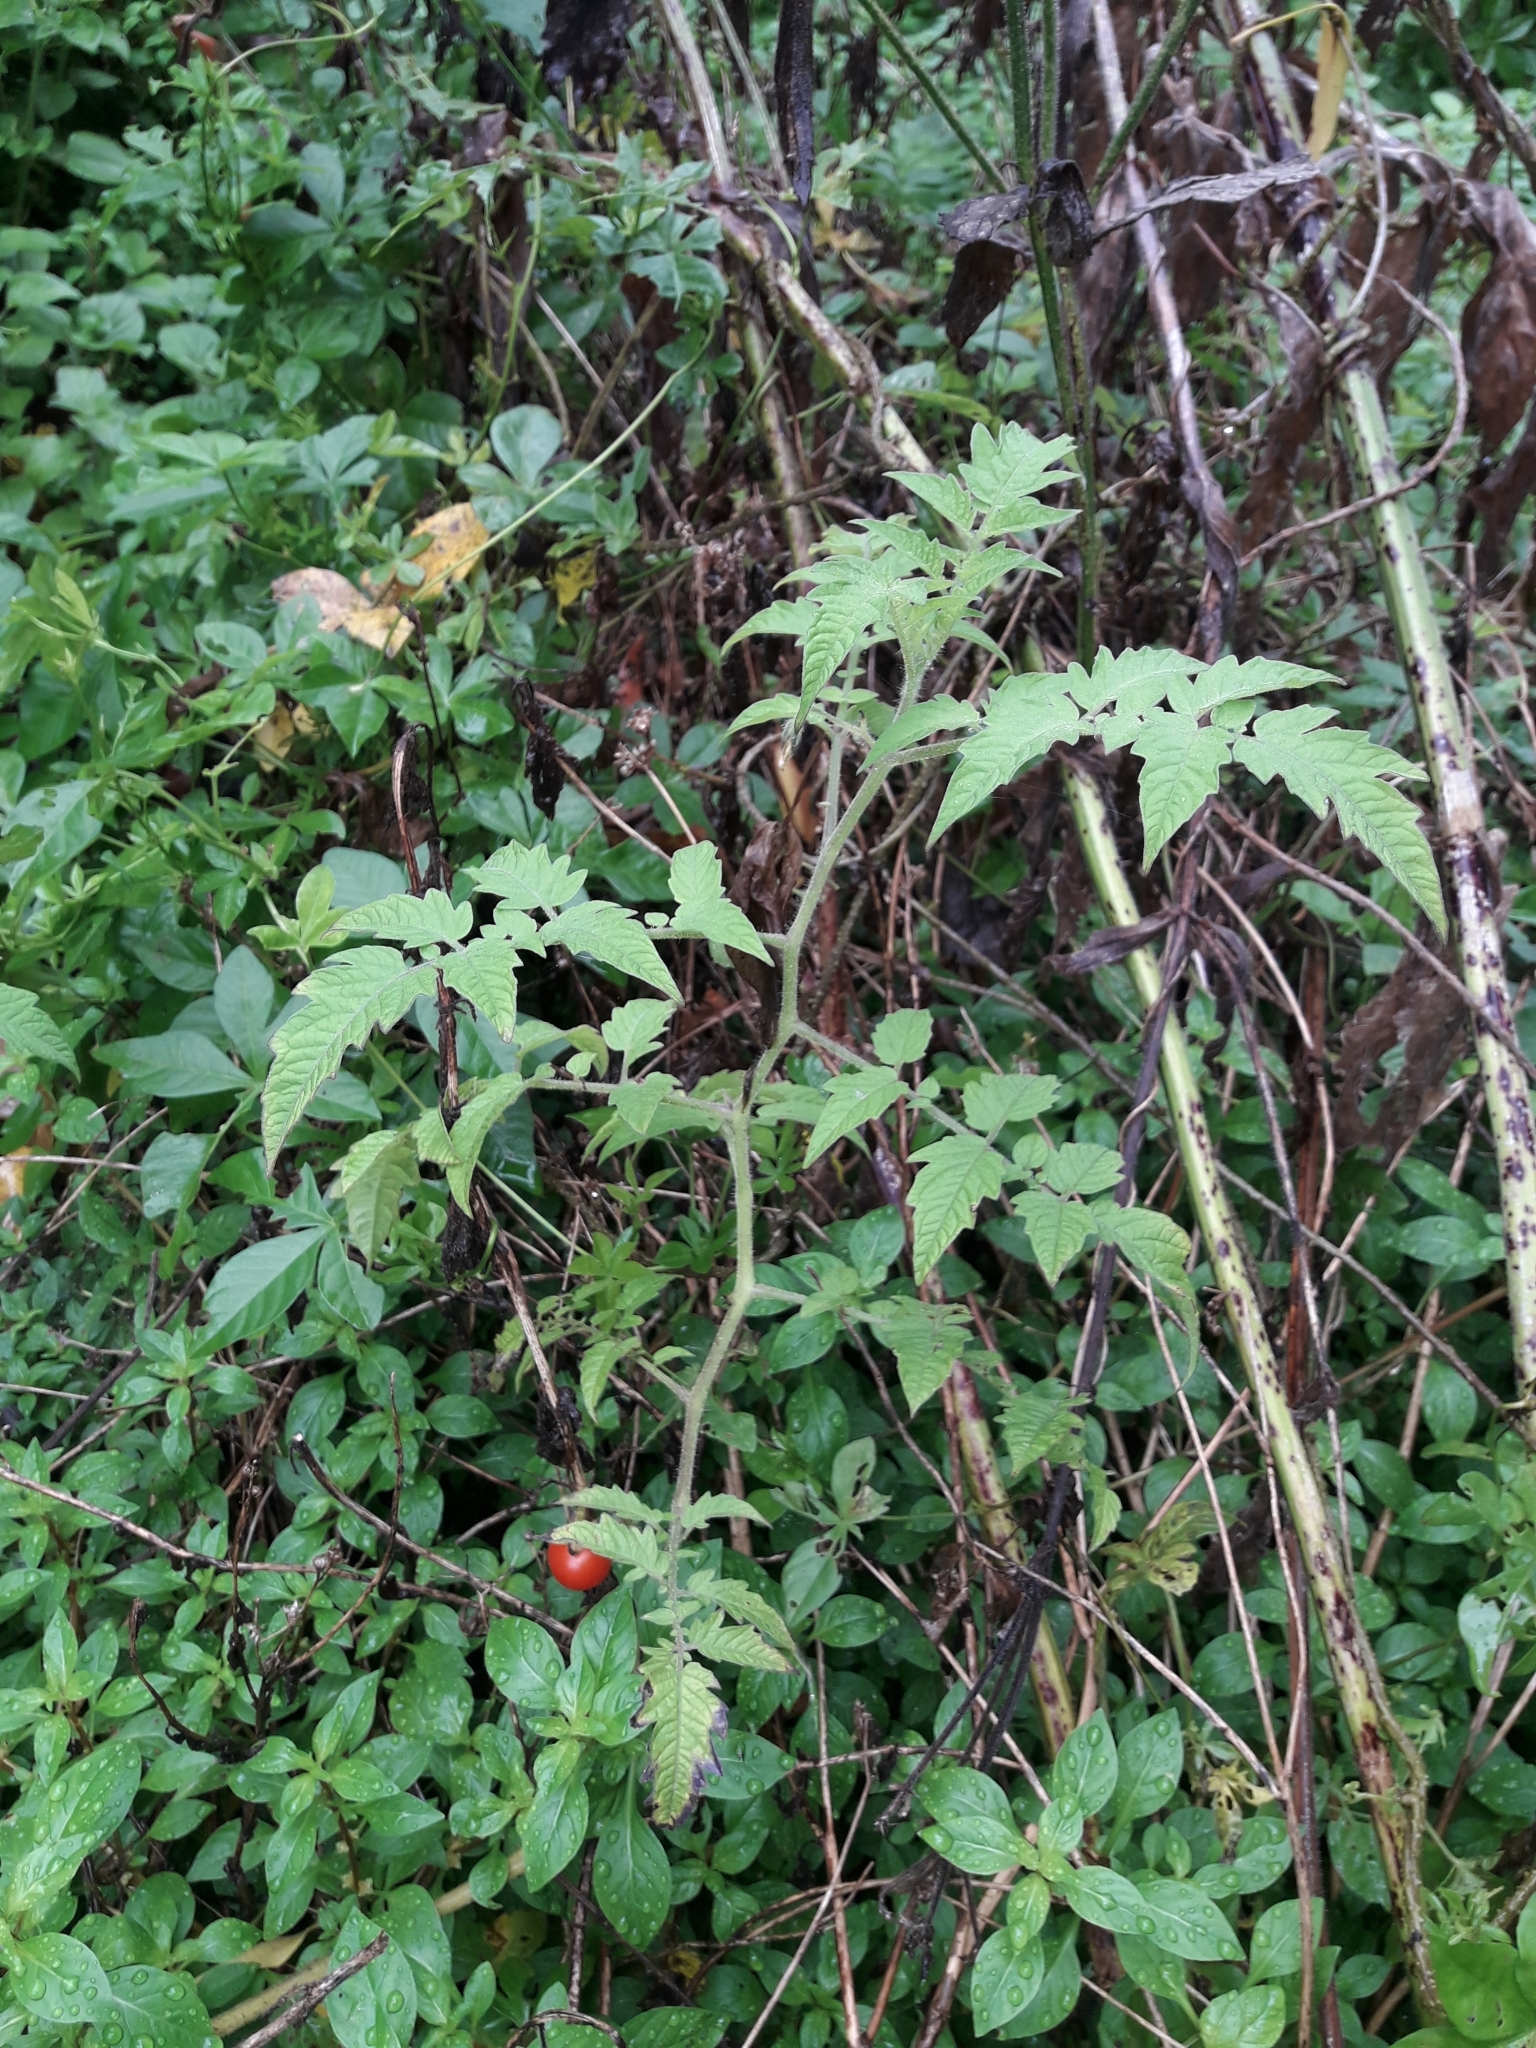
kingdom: Plantae
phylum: Tracheophyta
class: Magnoliopsida
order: Solanales
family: Solanaceae
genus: Solanum
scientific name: Solanum lycopersicum
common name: Garden tomato
